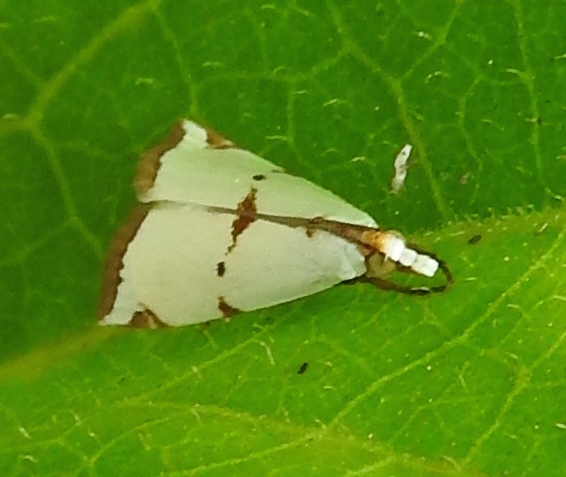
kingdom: Animalia
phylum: Arthropoda
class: Insecta
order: Lepidoptera
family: Crambidae
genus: Argyria
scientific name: Argyria lacteella
